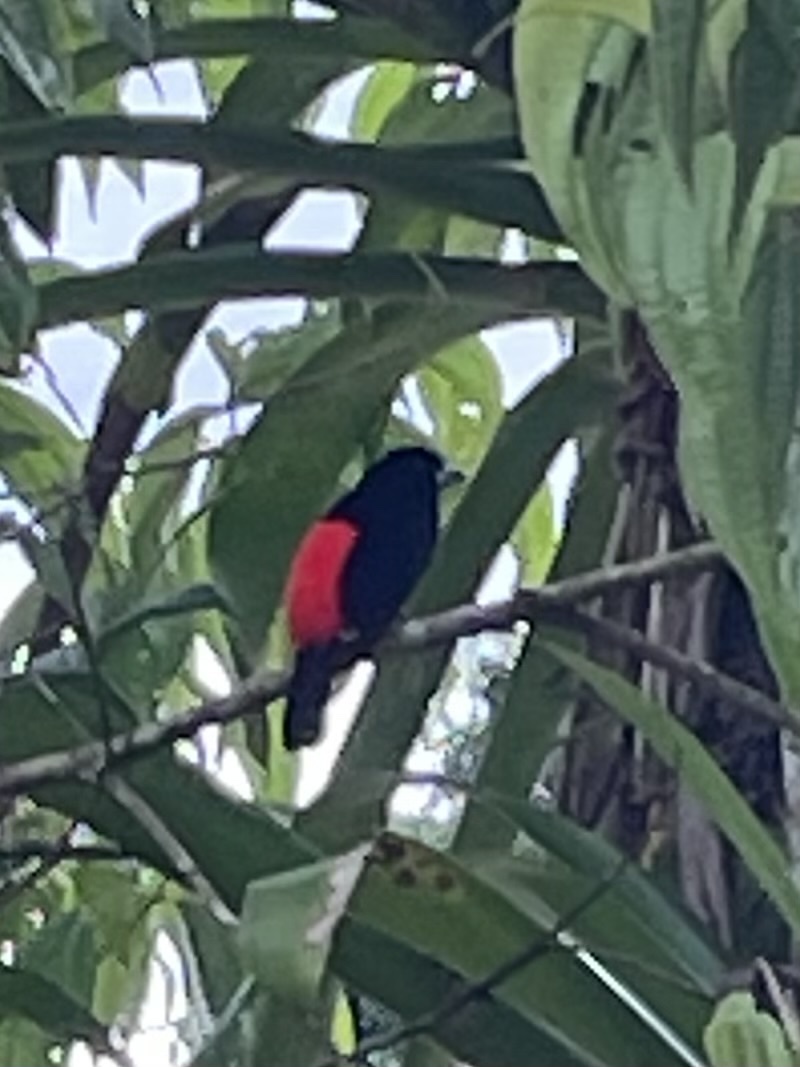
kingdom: Animalia
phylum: Chordata
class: Aves
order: Passeriformes
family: Thraupidae
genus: Ramphocelus
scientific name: Ramphocelus passerinii
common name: Passerini's tanager
